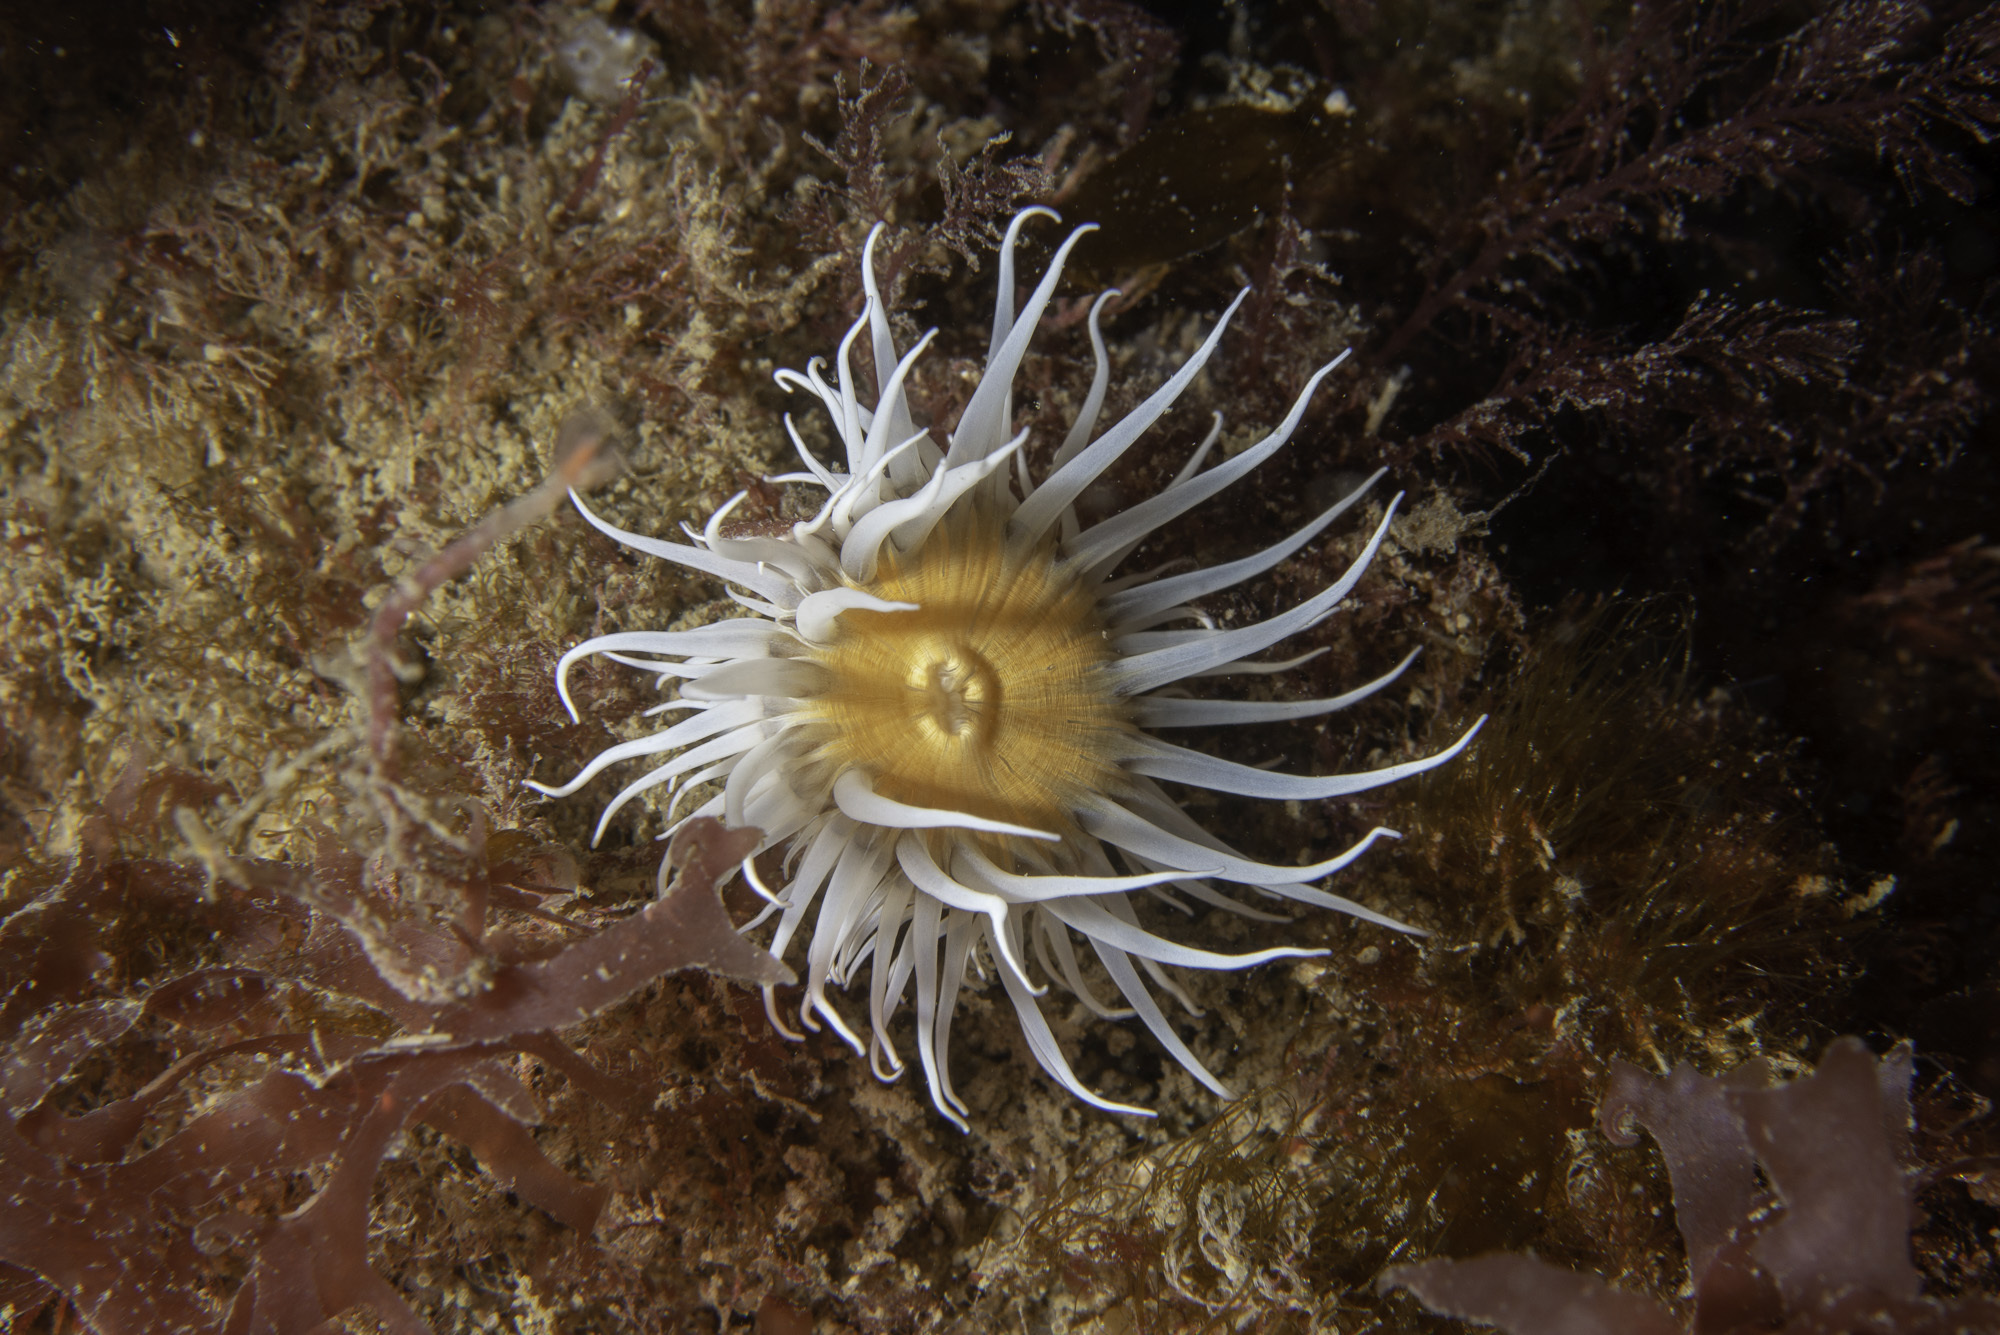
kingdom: Animalia
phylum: Cnidaria
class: Anthozoa
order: Actiniaria
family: Sagartiidae
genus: Actinothoe
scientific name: Actinothoe sphyrodeta
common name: Sandalled anemone
